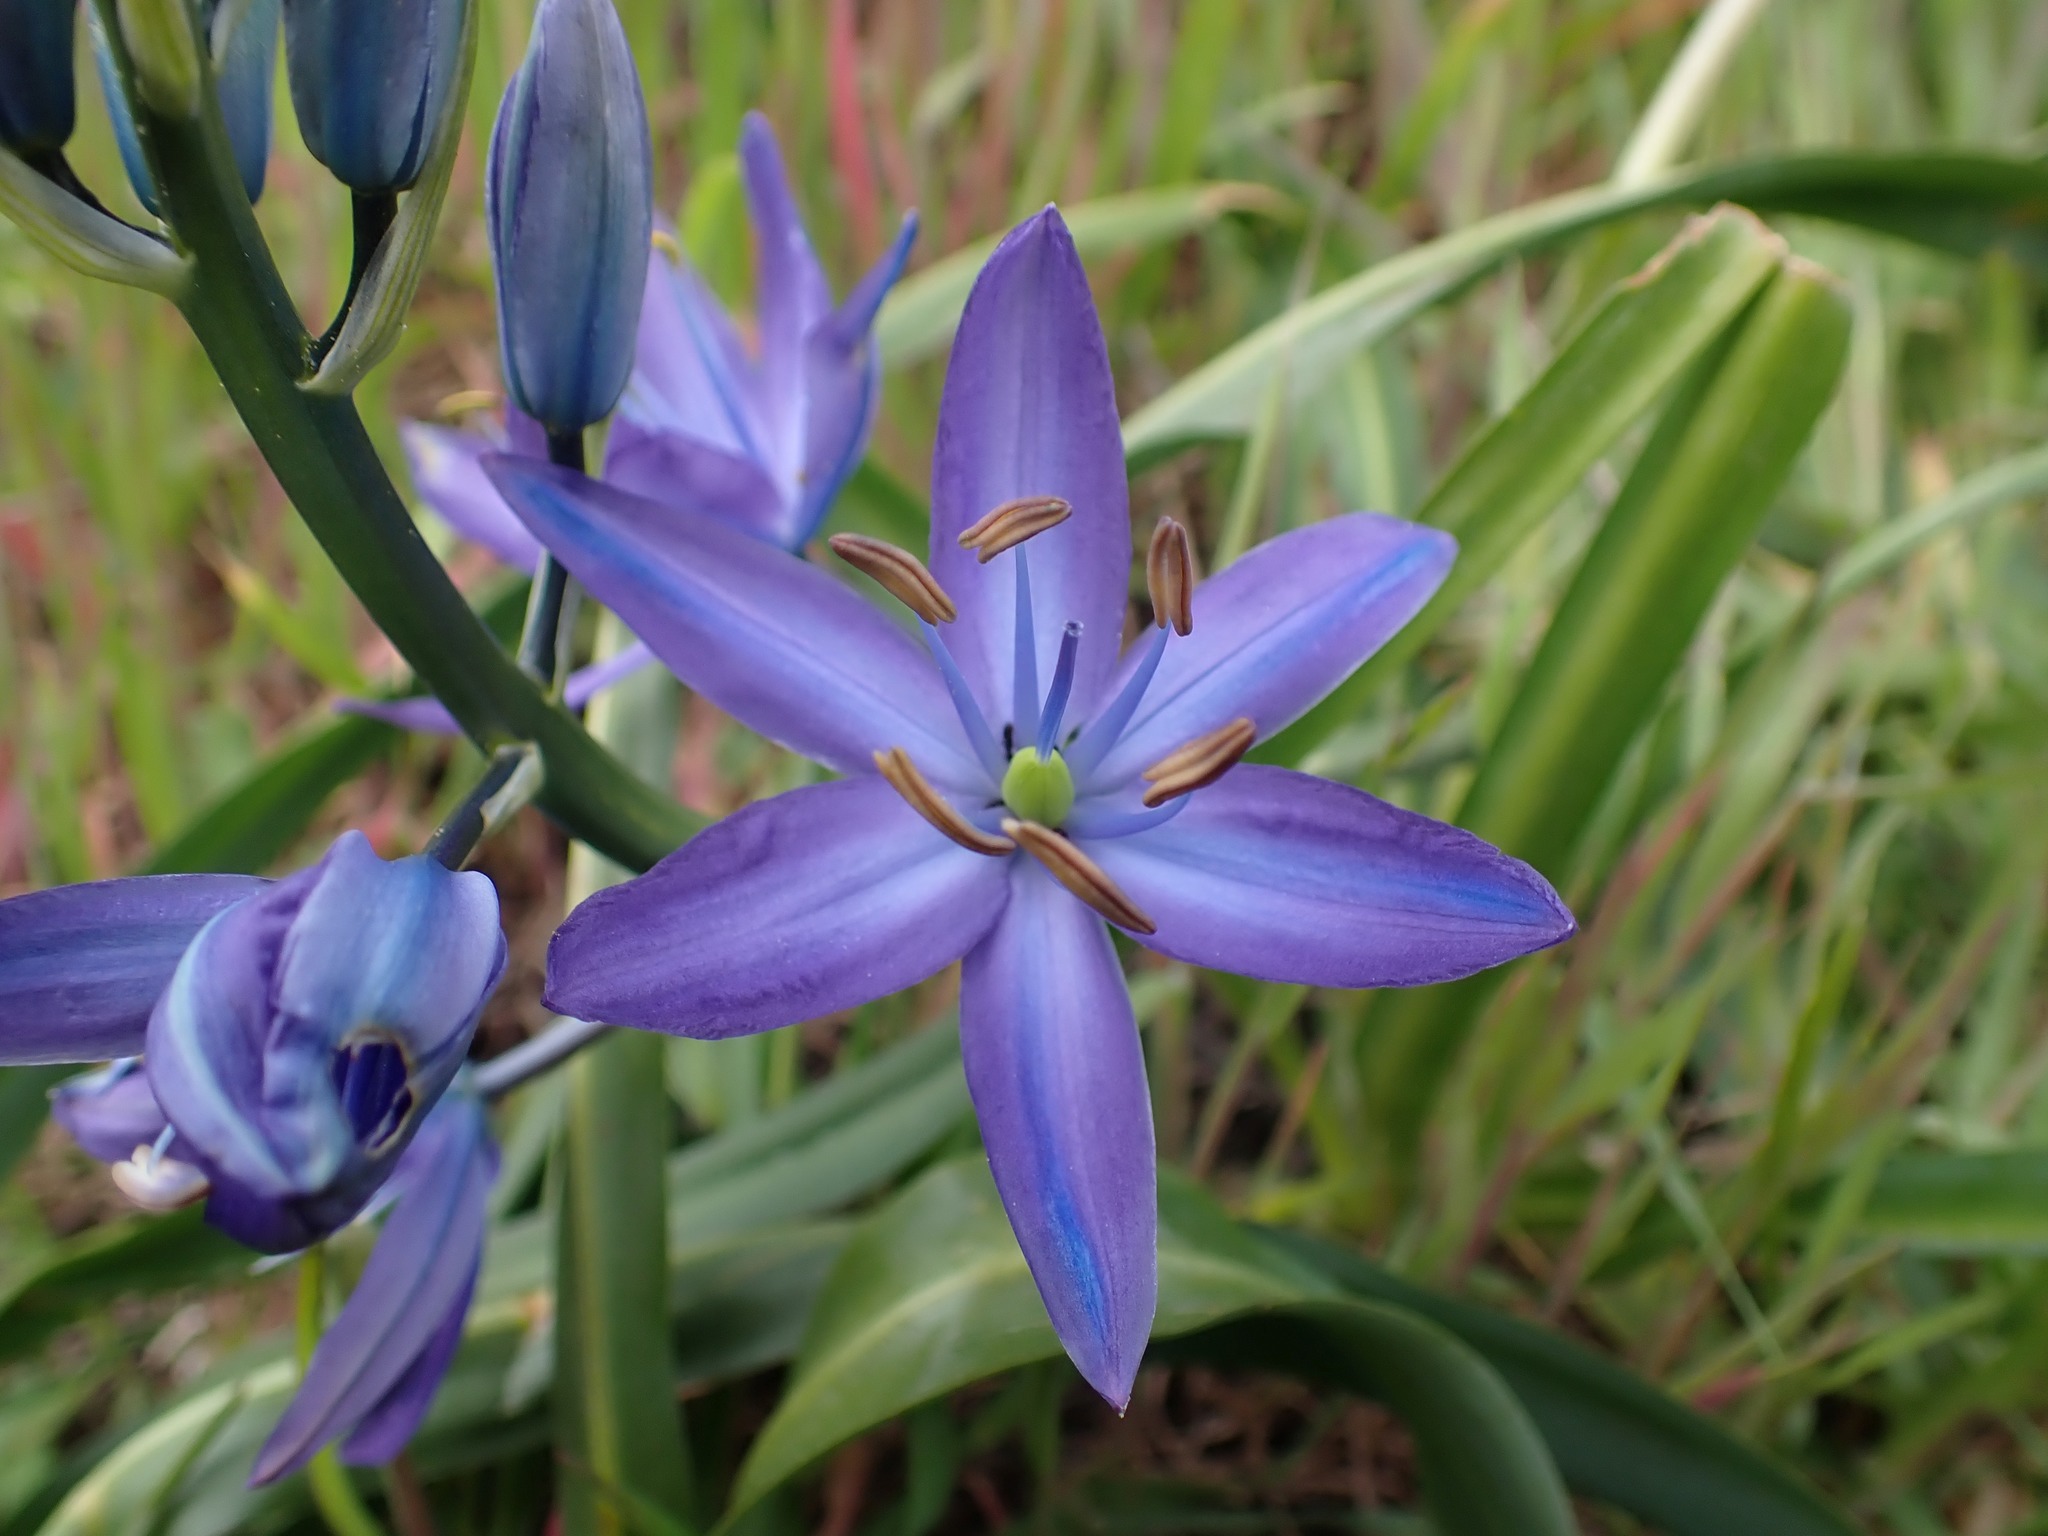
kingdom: Plantae
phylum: Tracheophyta
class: Liliopsida
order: Asparagales
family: Asparagaceae
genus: Camassia
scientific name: Camassia leichtlinii
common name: Leichtlin's camas
